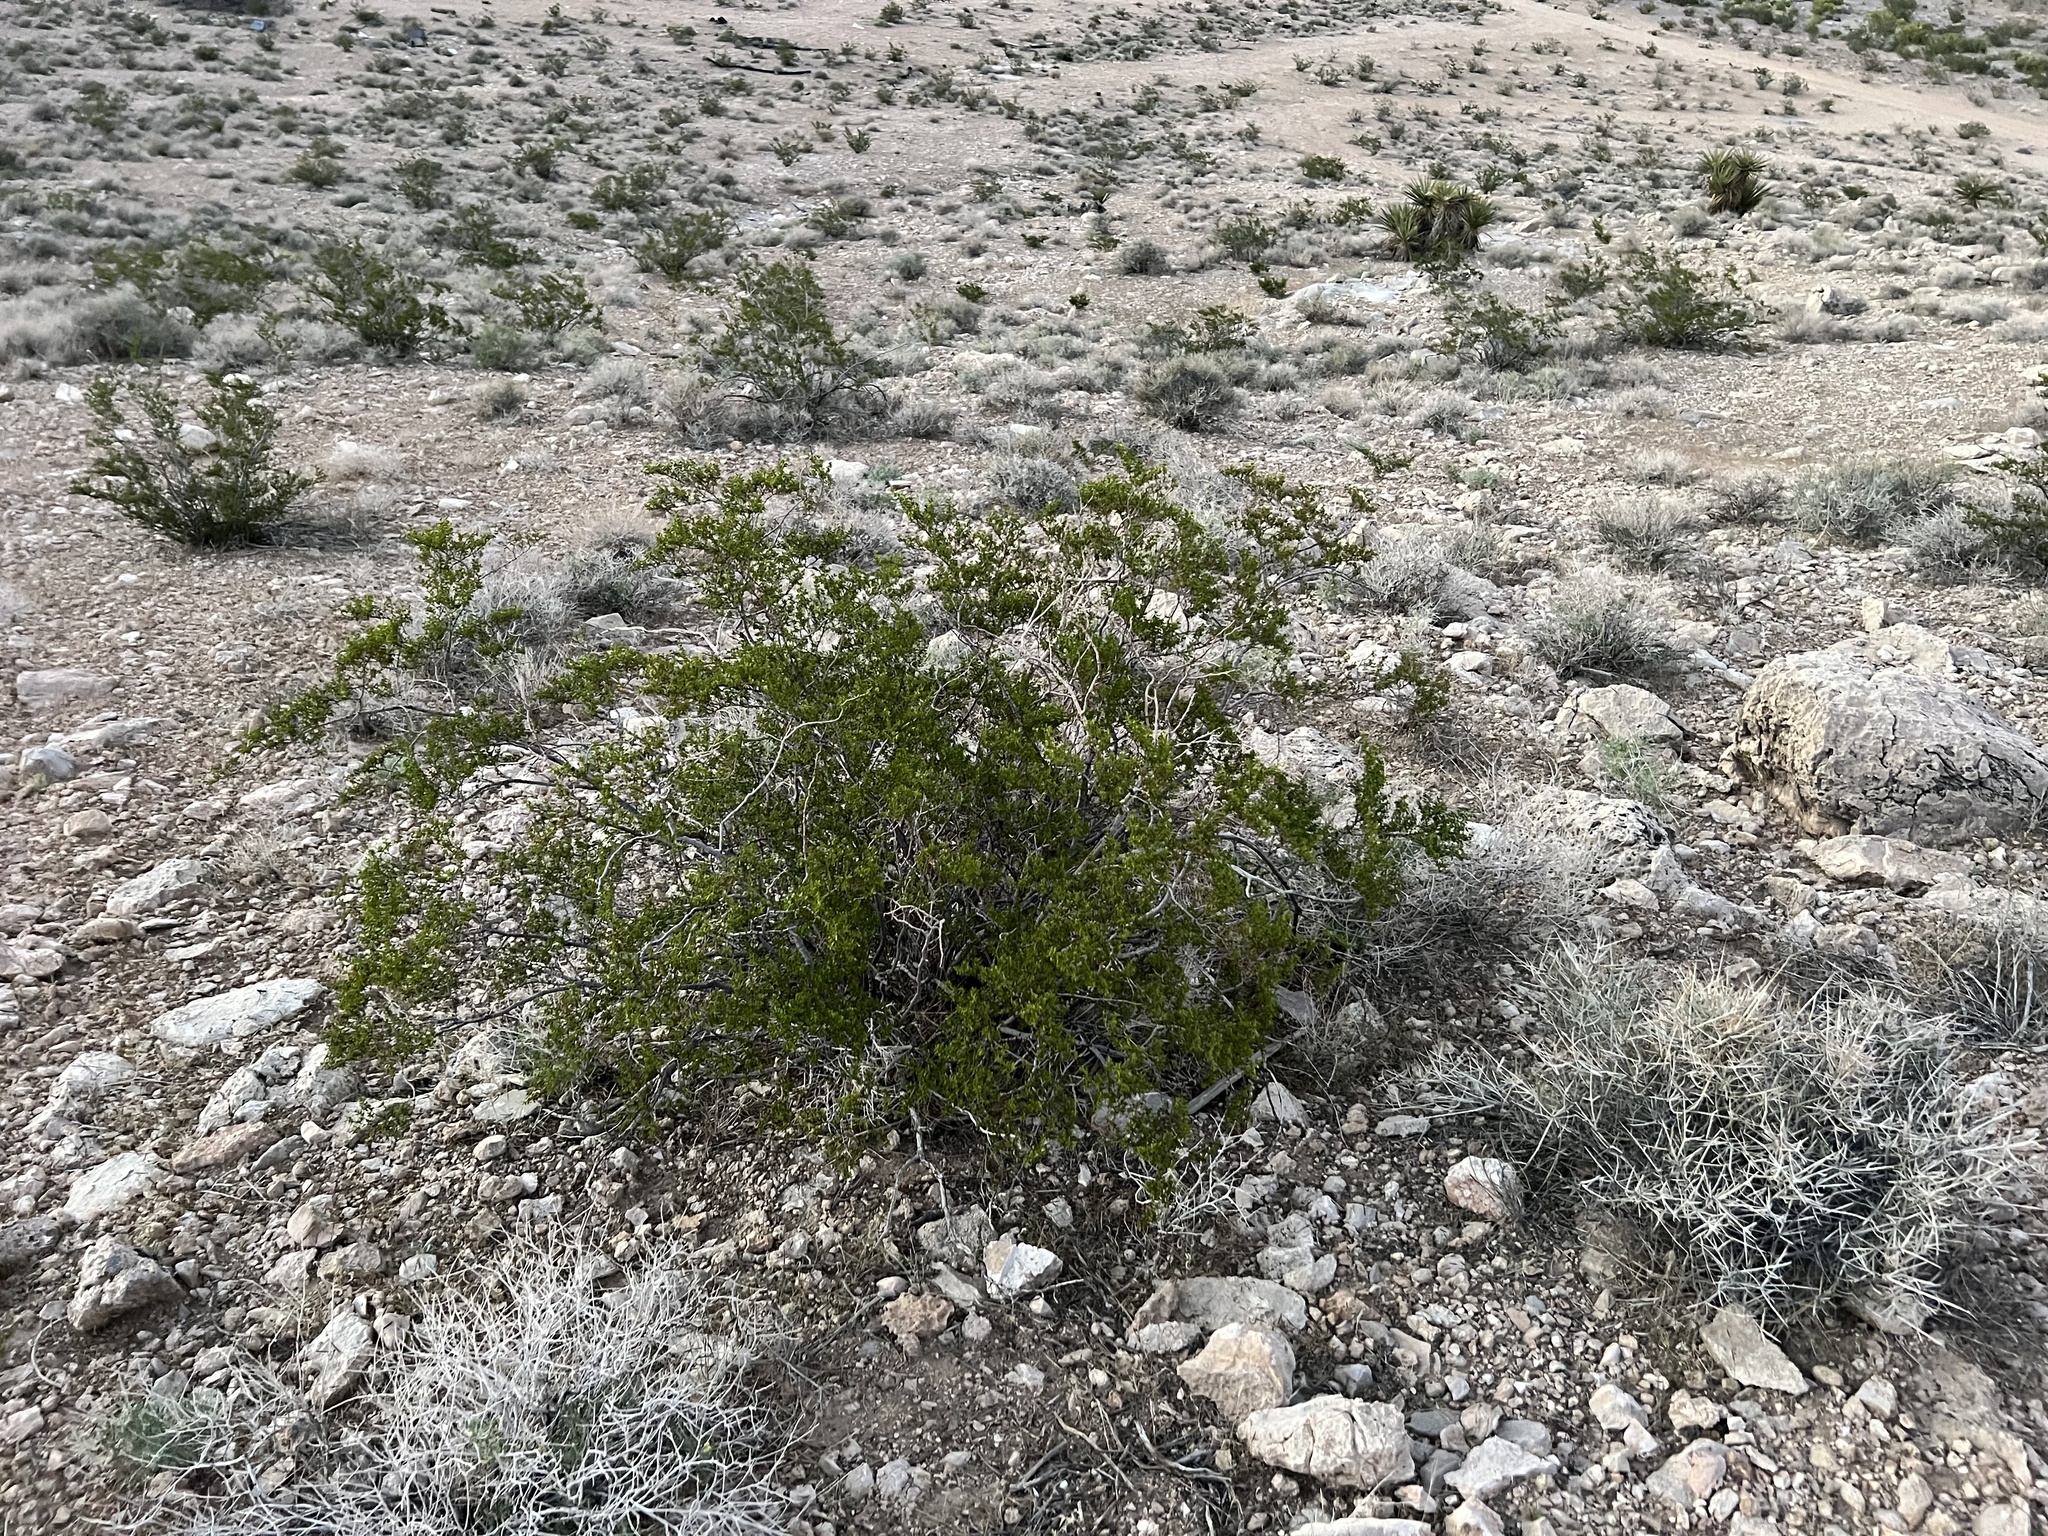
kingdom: Plantae
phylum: Tracheophyta
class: Magnoliopsida
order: Zygophyllales
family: Zygophyllaceae
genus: Larrea
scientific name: Larrea tridentata
